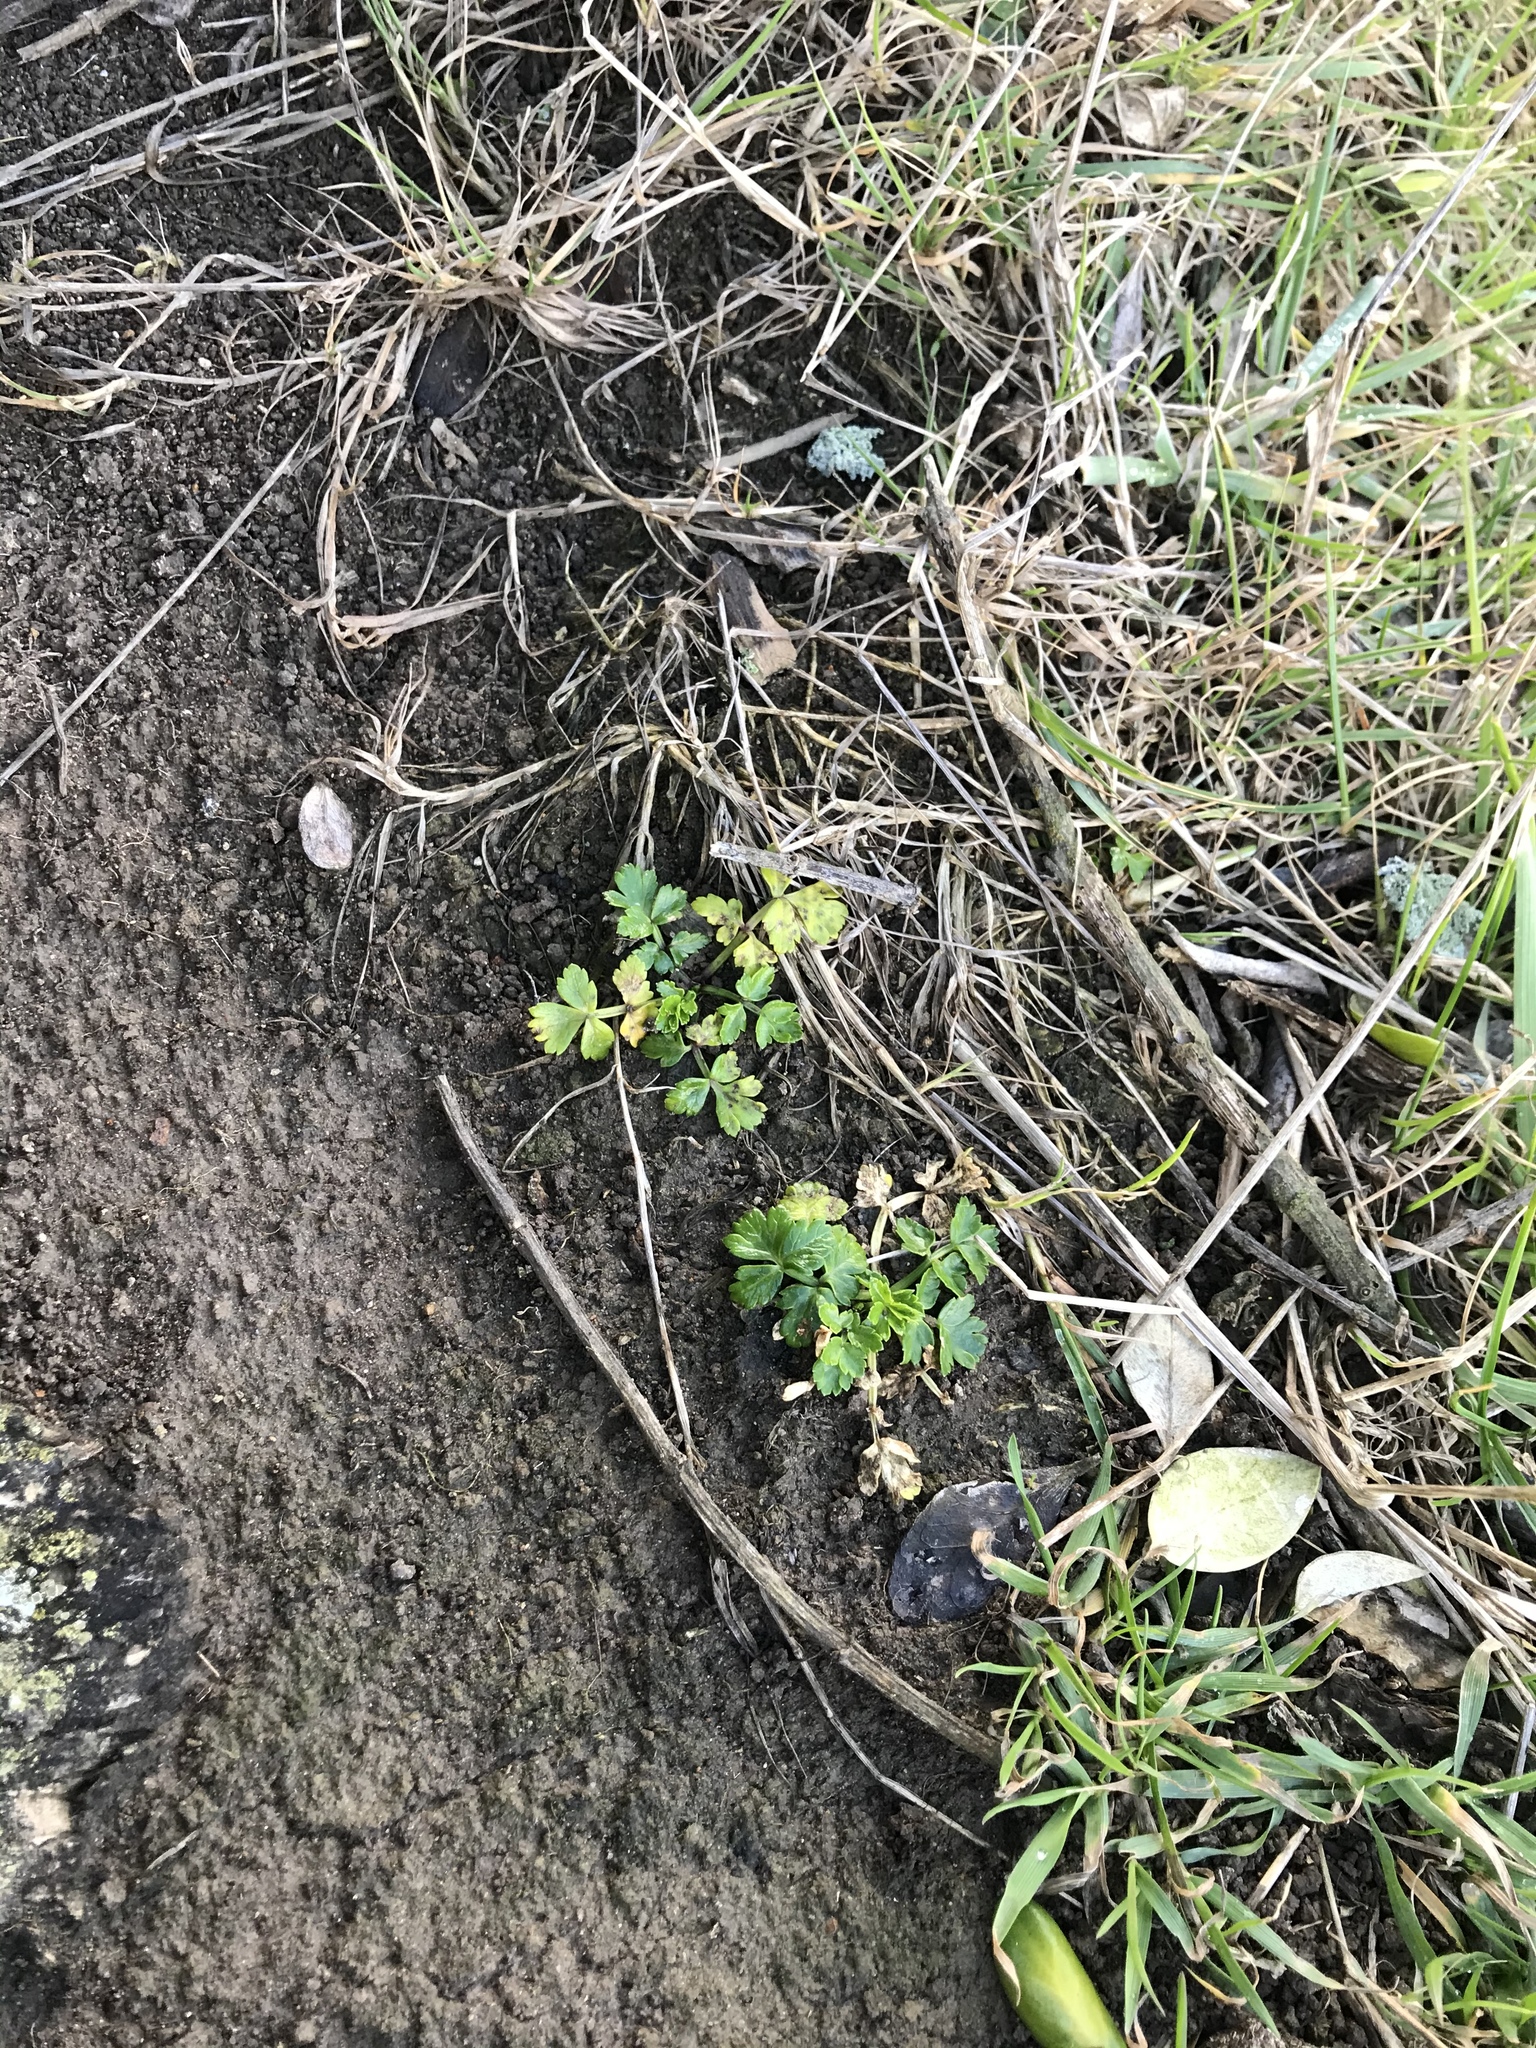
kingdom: Plantae
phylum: Tracheophyta
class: Magnoliopsida
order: Apiales
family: Apiaceae
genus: Apium
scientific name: Apium prostratum
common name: Prostrate marshwort
